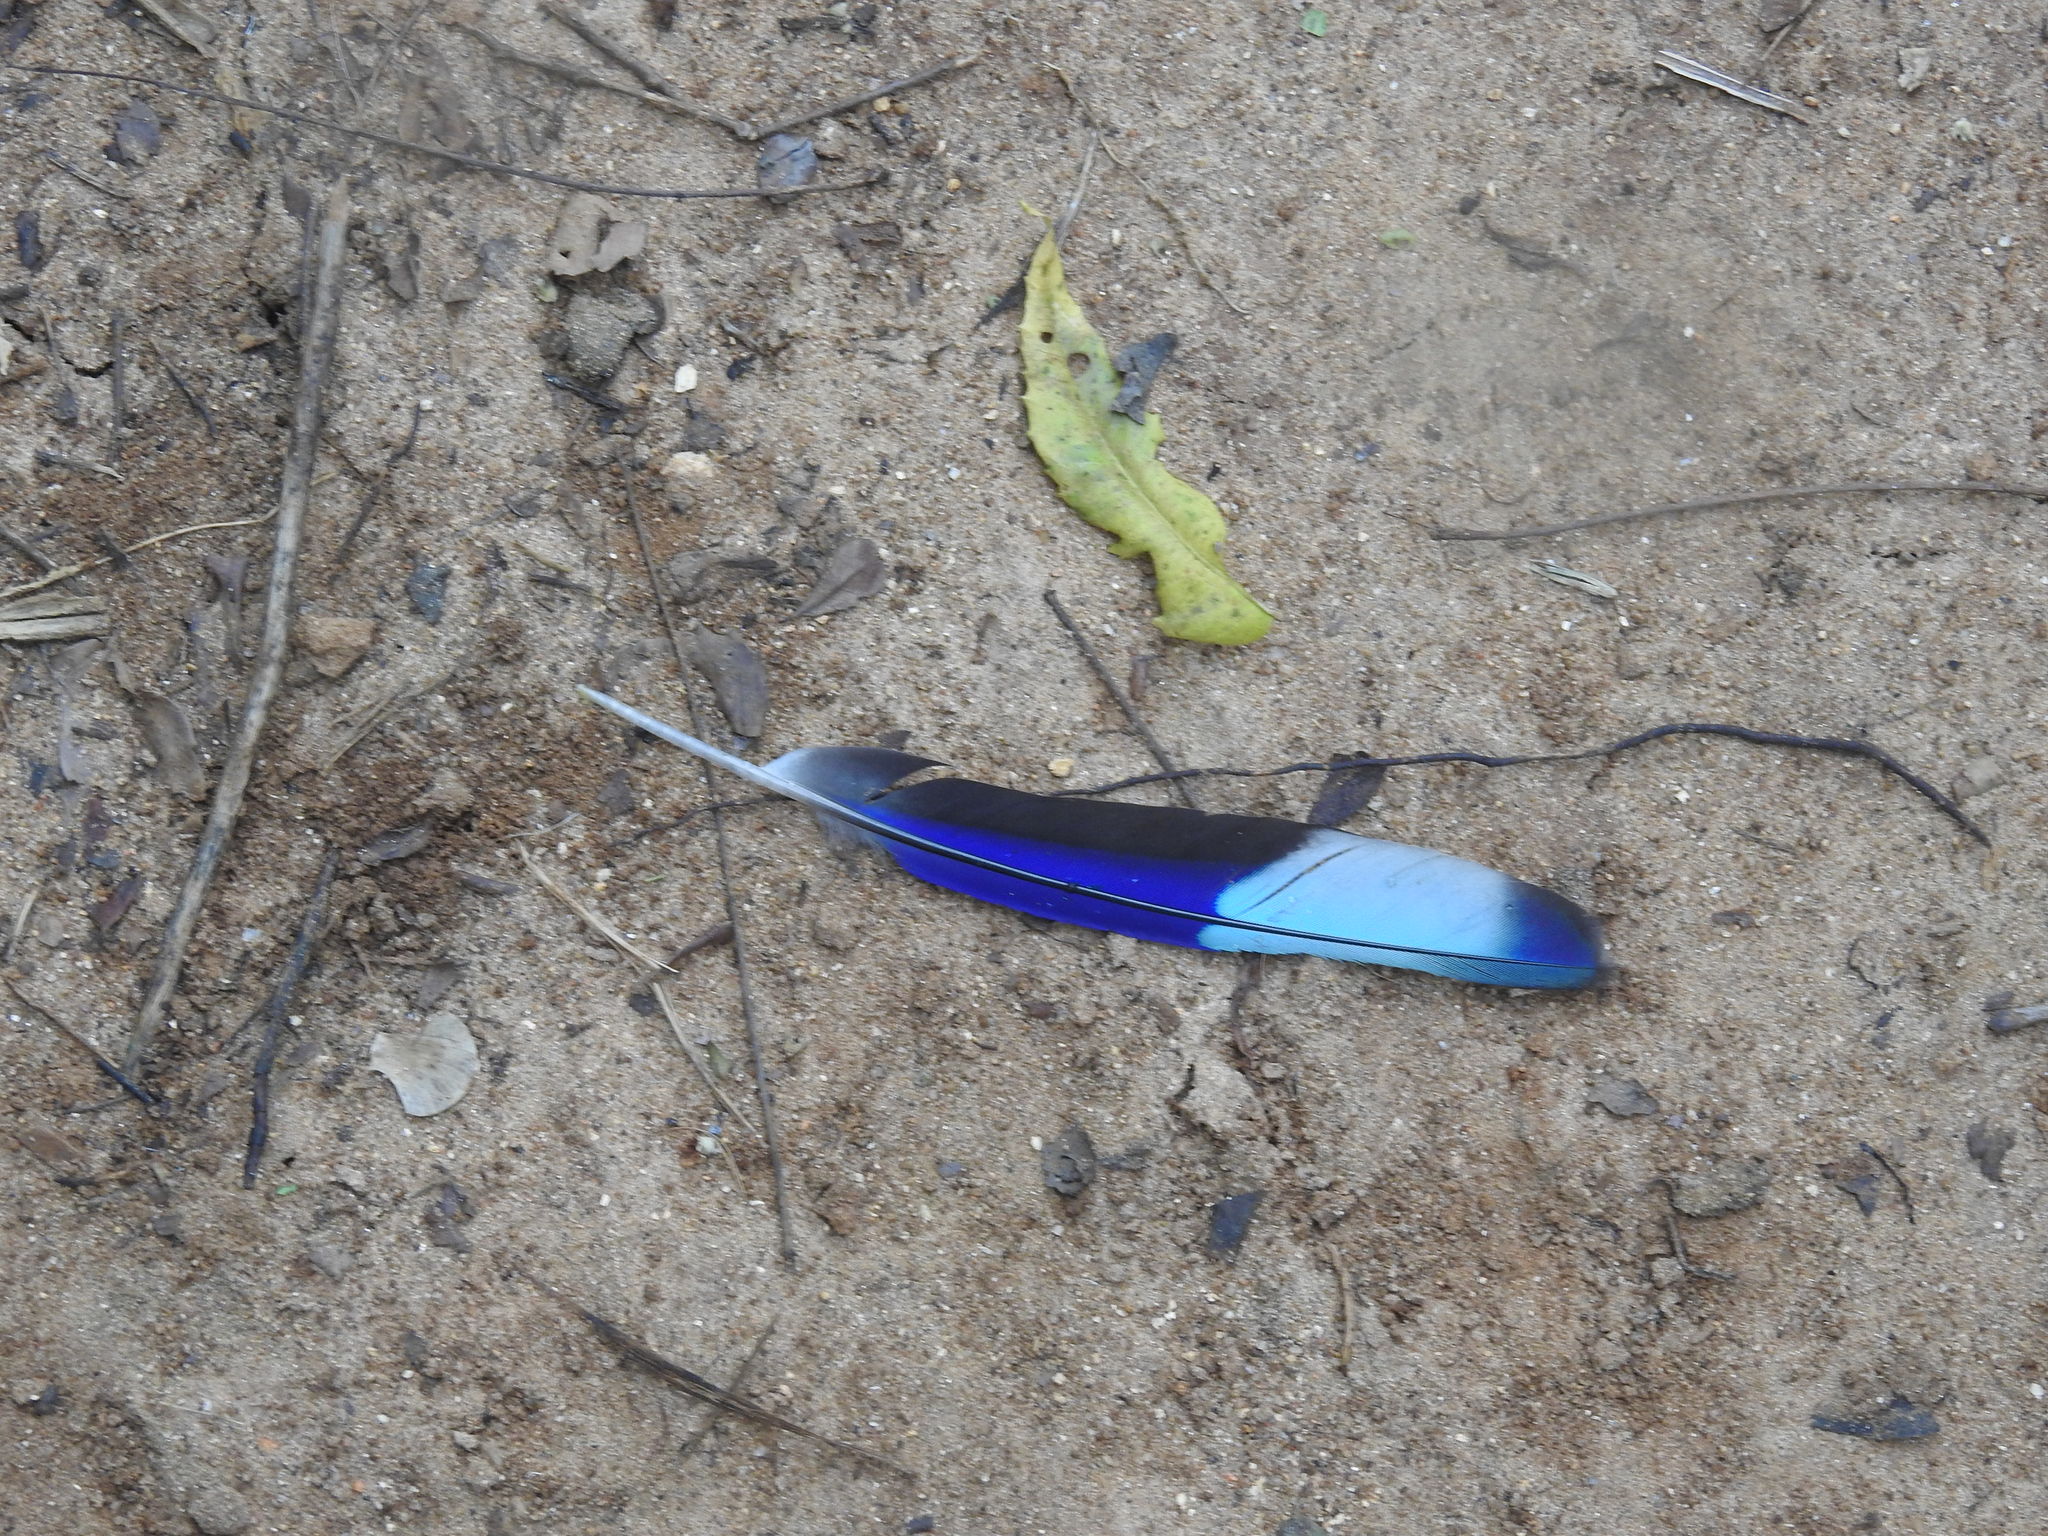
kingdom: Animalia
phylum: Chordata
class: Aves
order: Coraciiformes
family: Coraciidae
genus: Coracias
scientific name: Coracias benghalensis
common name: Indian roller
